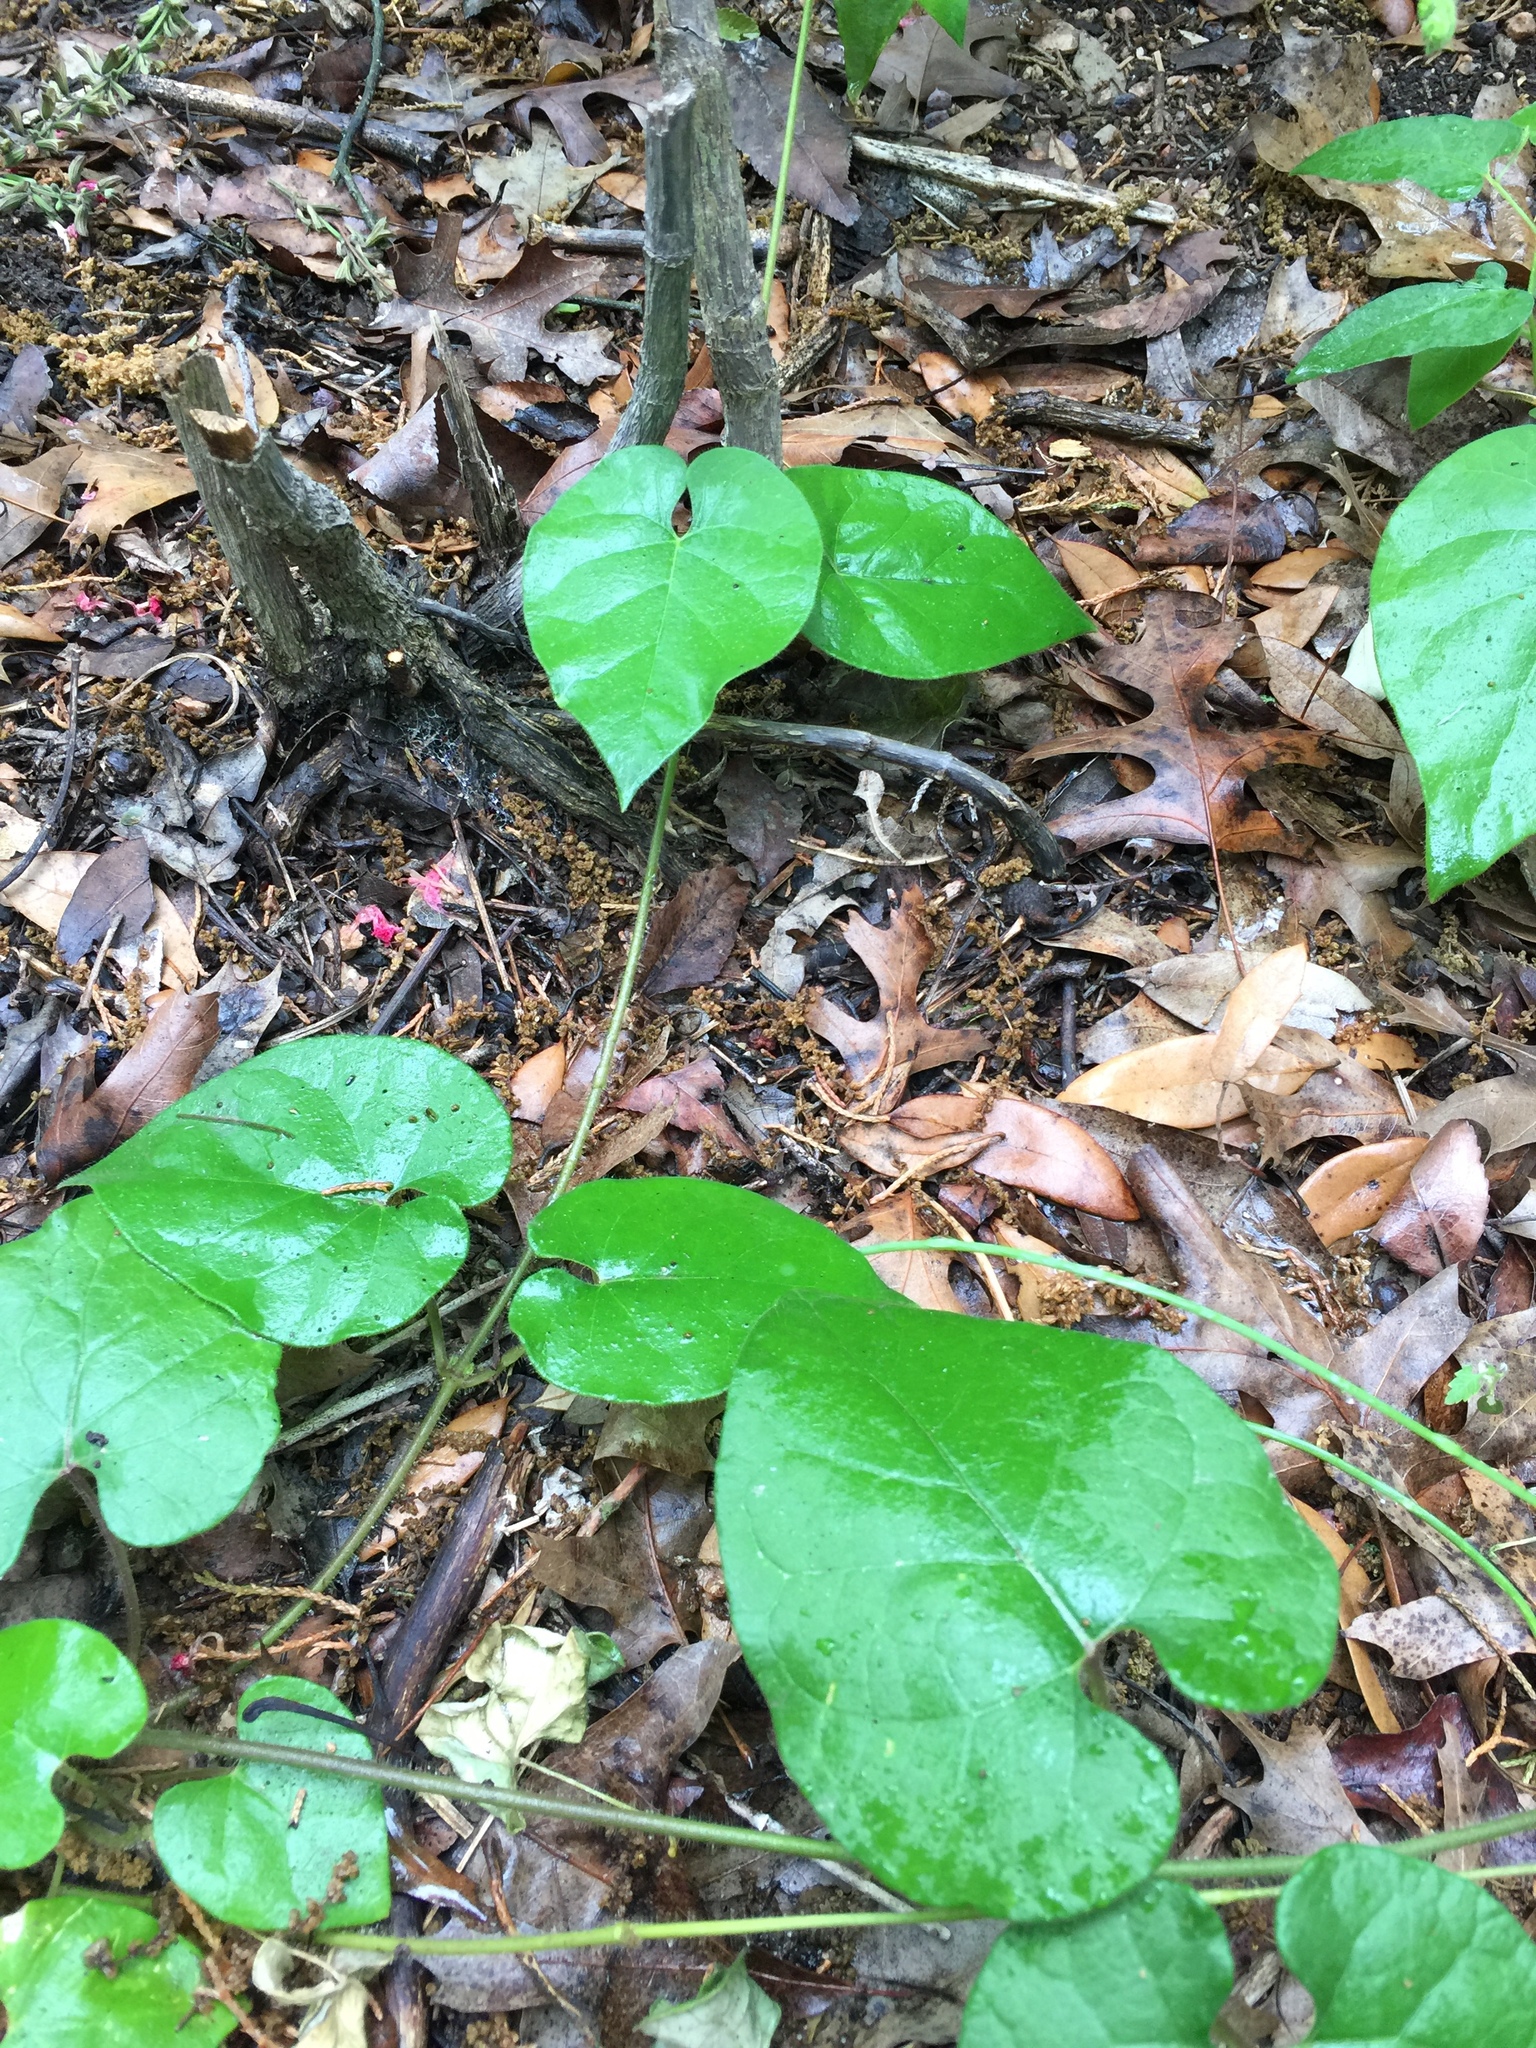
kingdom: Plantae
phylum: Tracheophyta
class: Magnoliopsida
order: Gentianales
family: Apocynaceae
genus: Dictyanthus
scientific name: Dictyanthus reticulatus
